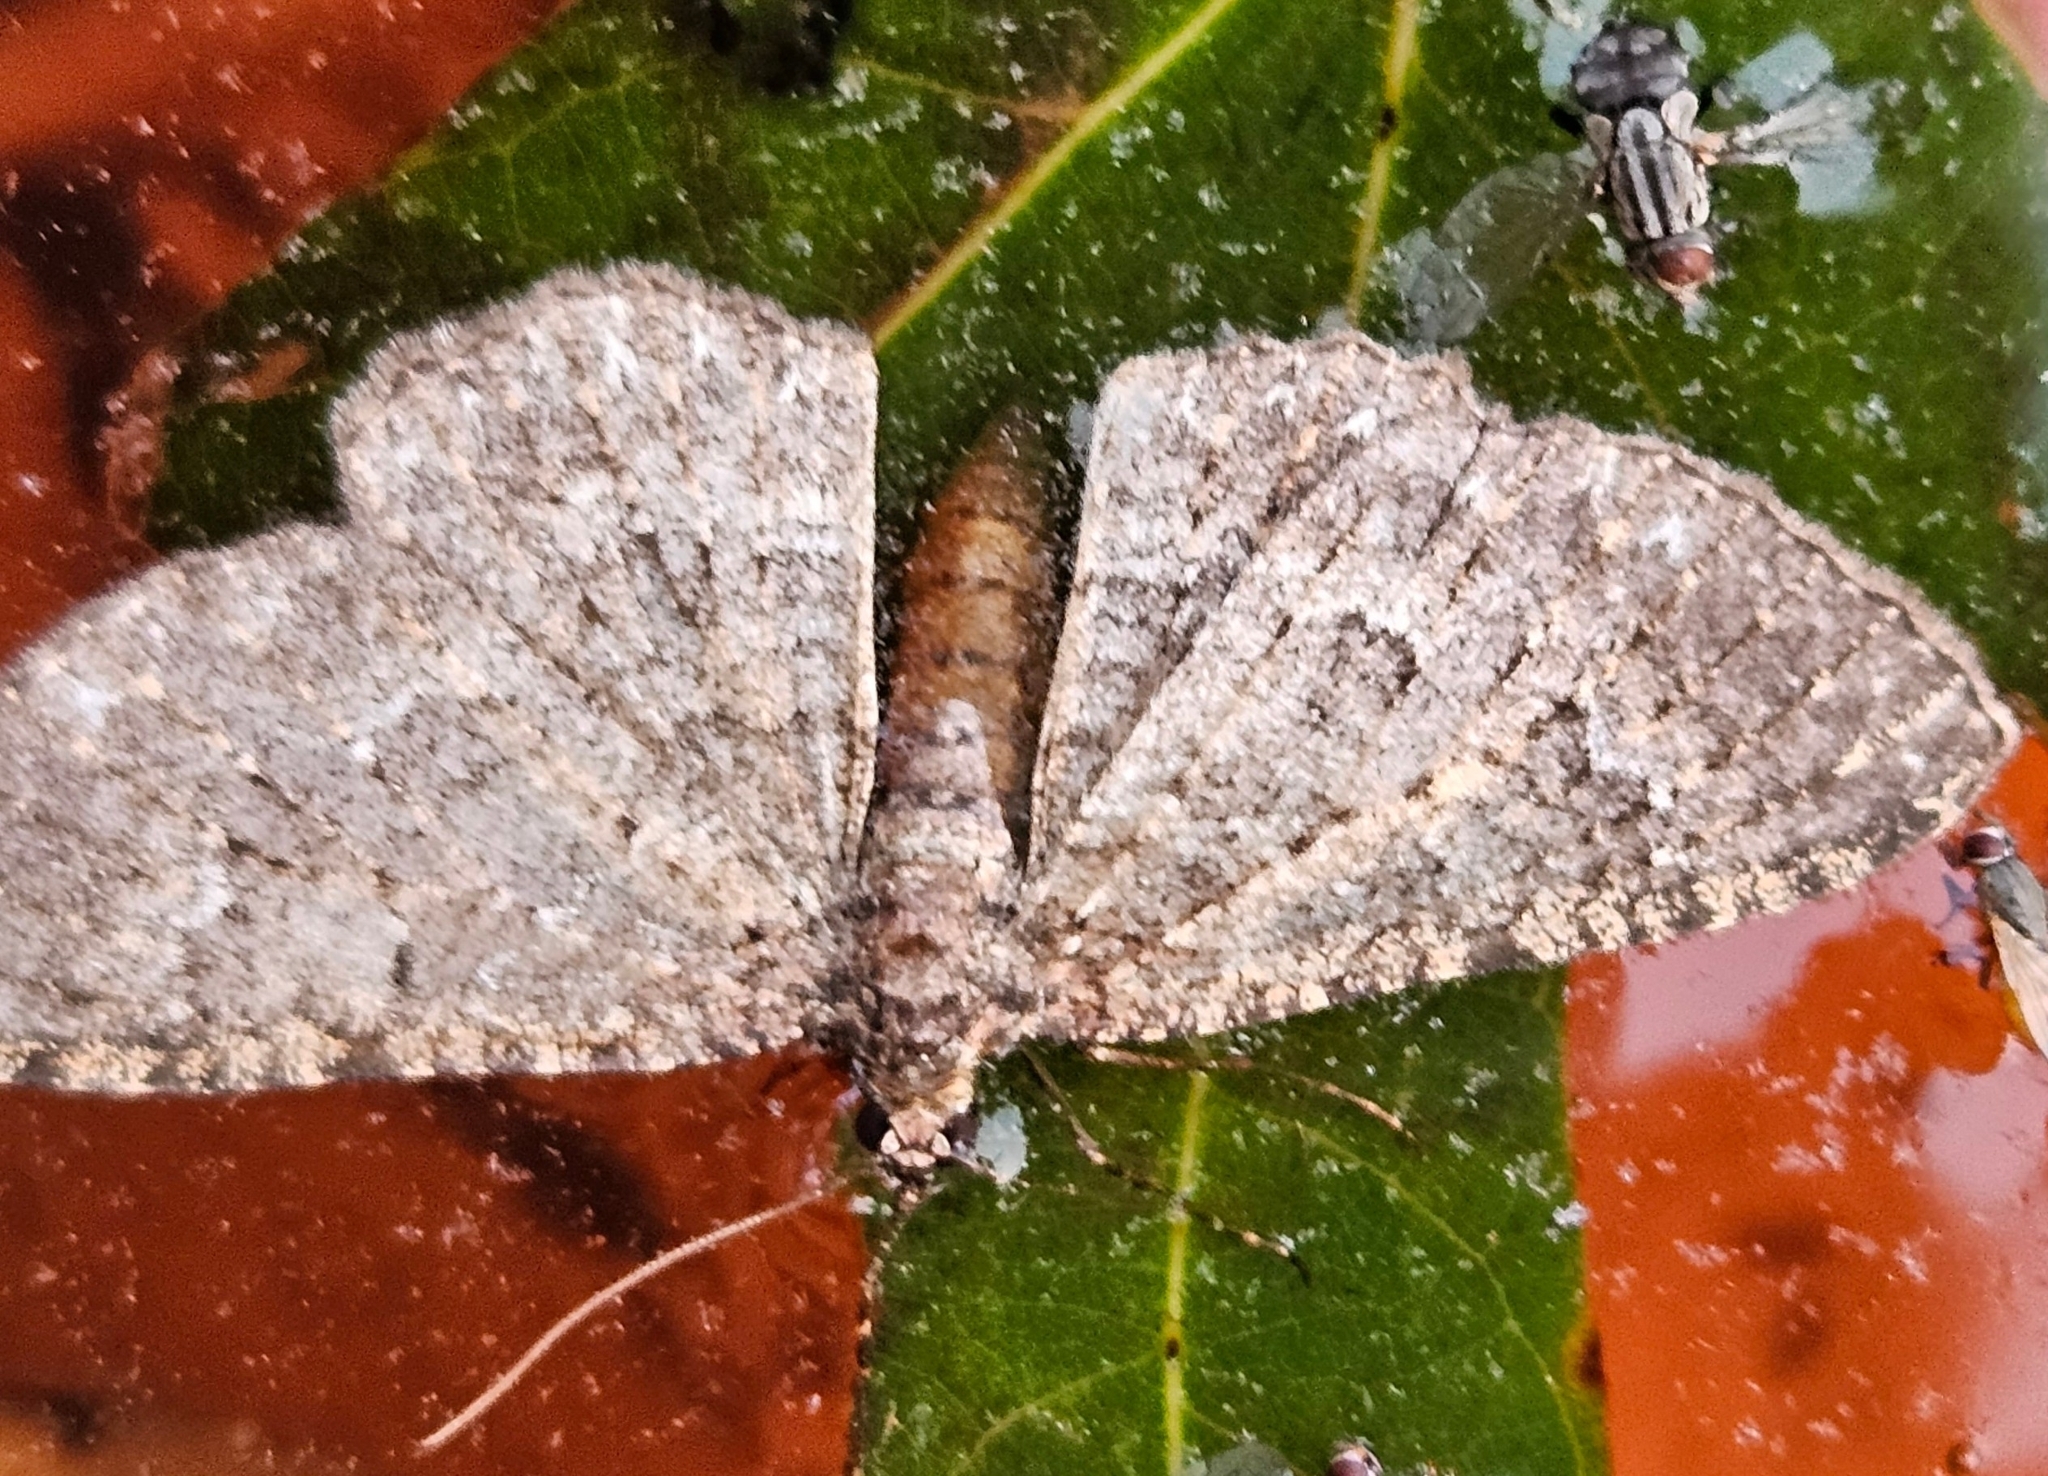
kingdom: Animalia
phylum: Arthropoda
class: Insecta
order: Lepidoptera
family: Geometridae
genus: Disclisioprocta
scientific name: Disclisioprocta stellata
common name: Somber carpet
